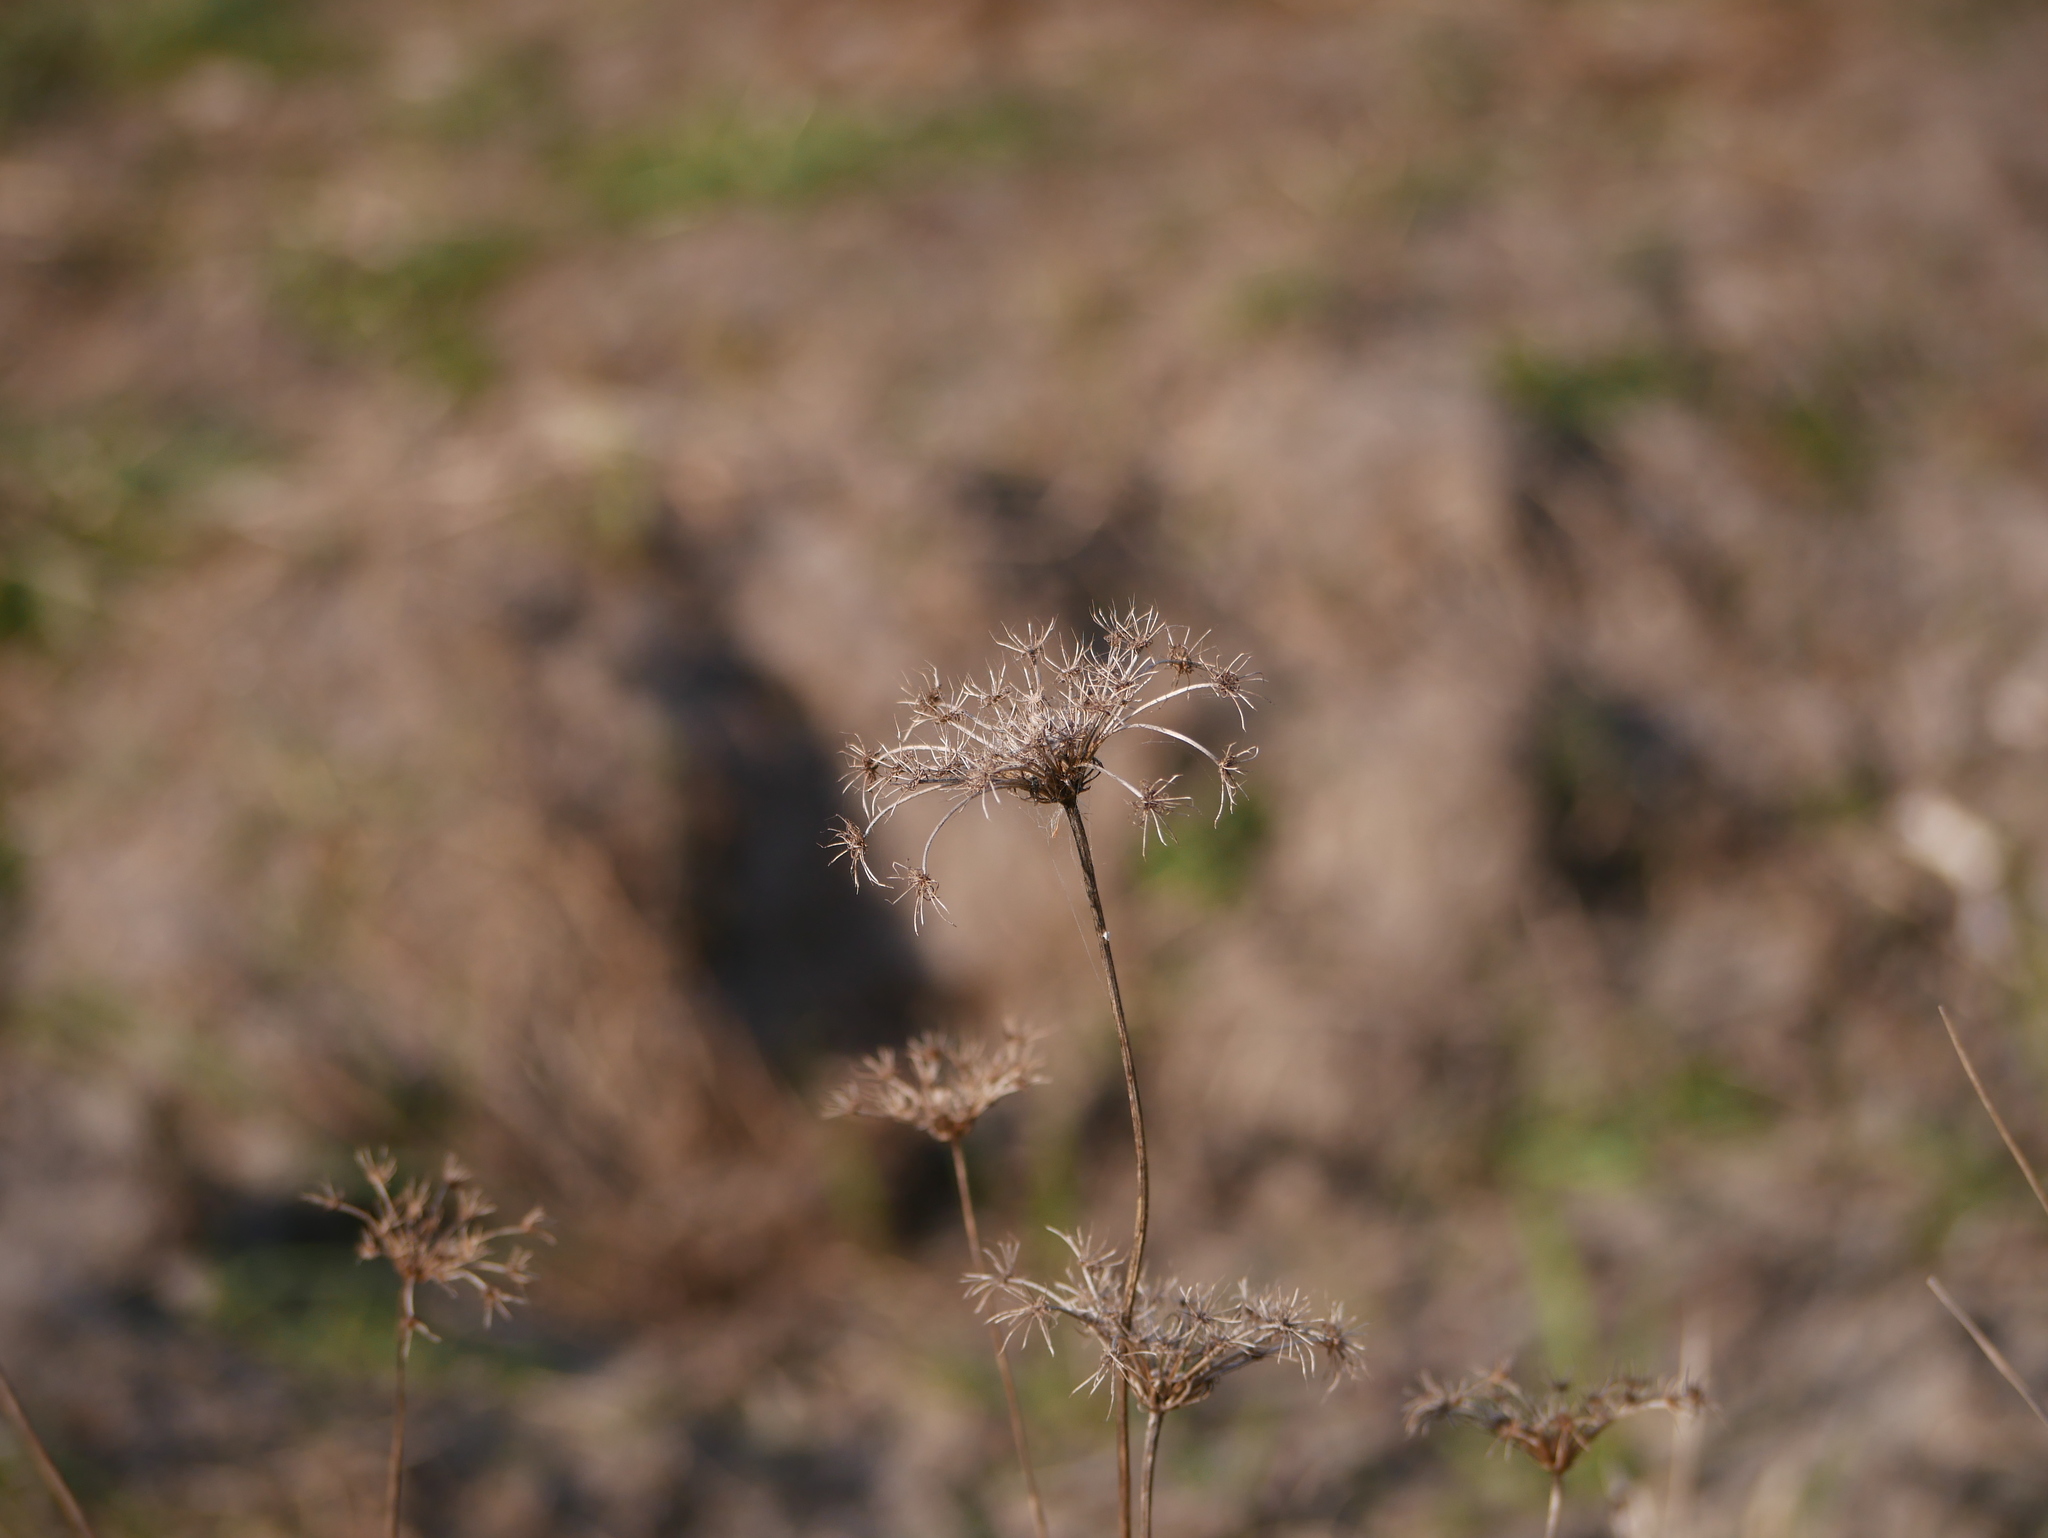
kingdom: Plantae
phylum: Tracheophyta
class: Magnoliopsida
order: Apiales
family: Apiaceae
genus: Daucus
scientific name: Daucus carota
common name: Wild carrot
